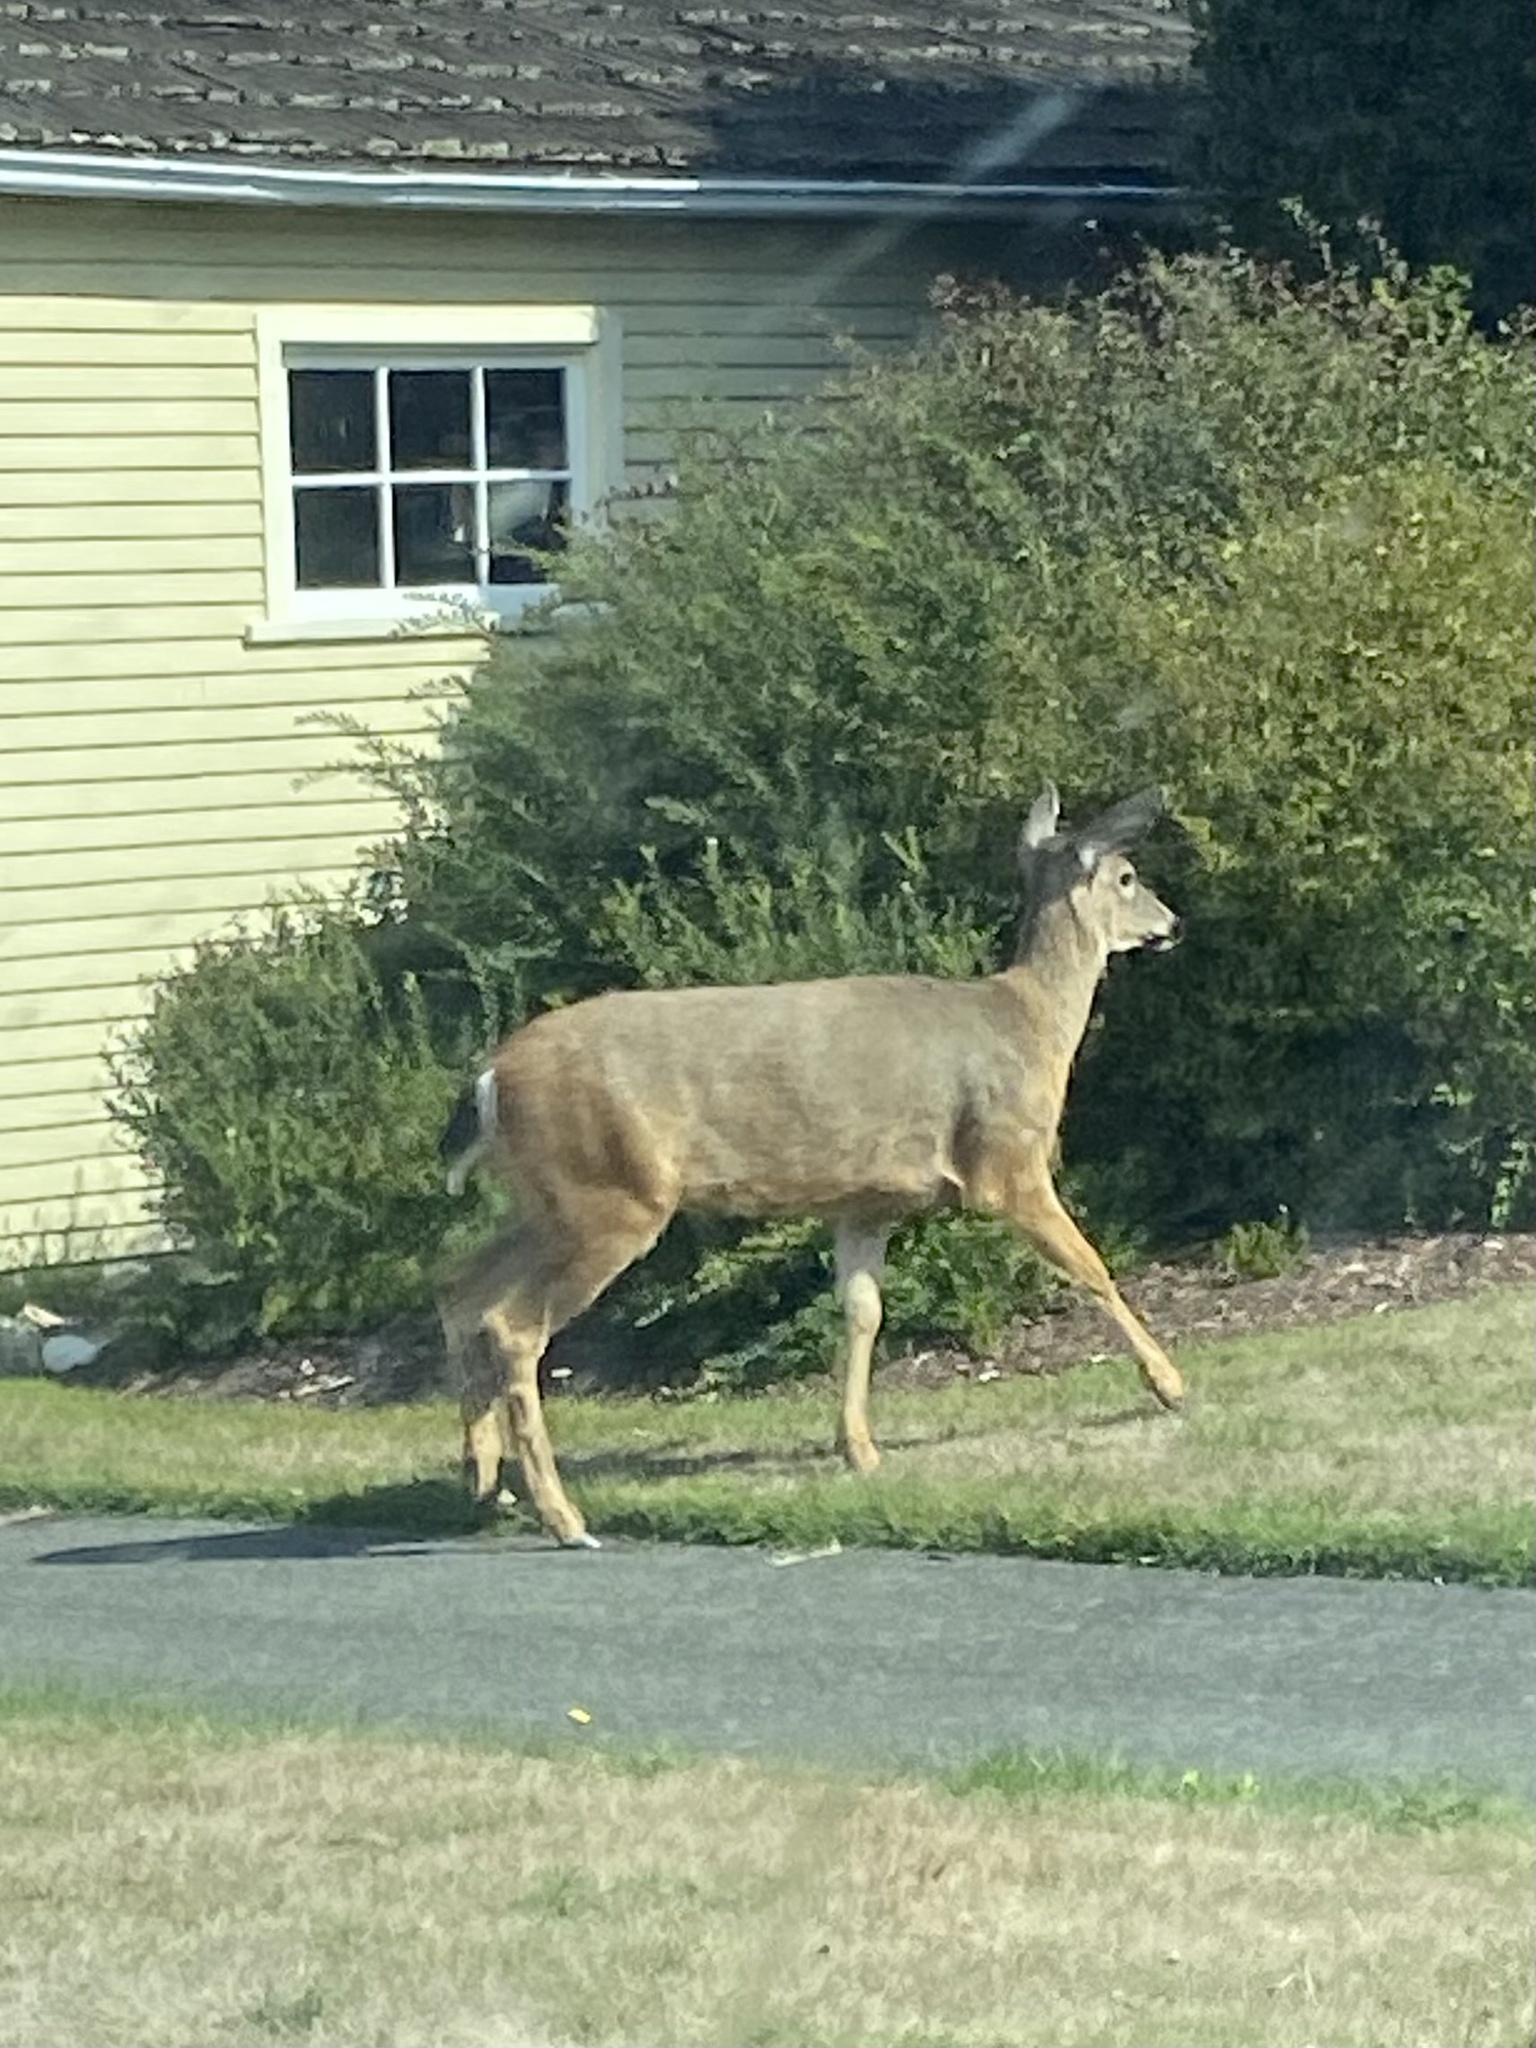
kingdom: Animalia
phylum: Chordata
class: Mammalia
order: Artiodactyla
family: Cervidae
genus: Odocoileus
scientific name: Odocoileus hemionus
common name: Mule deer
